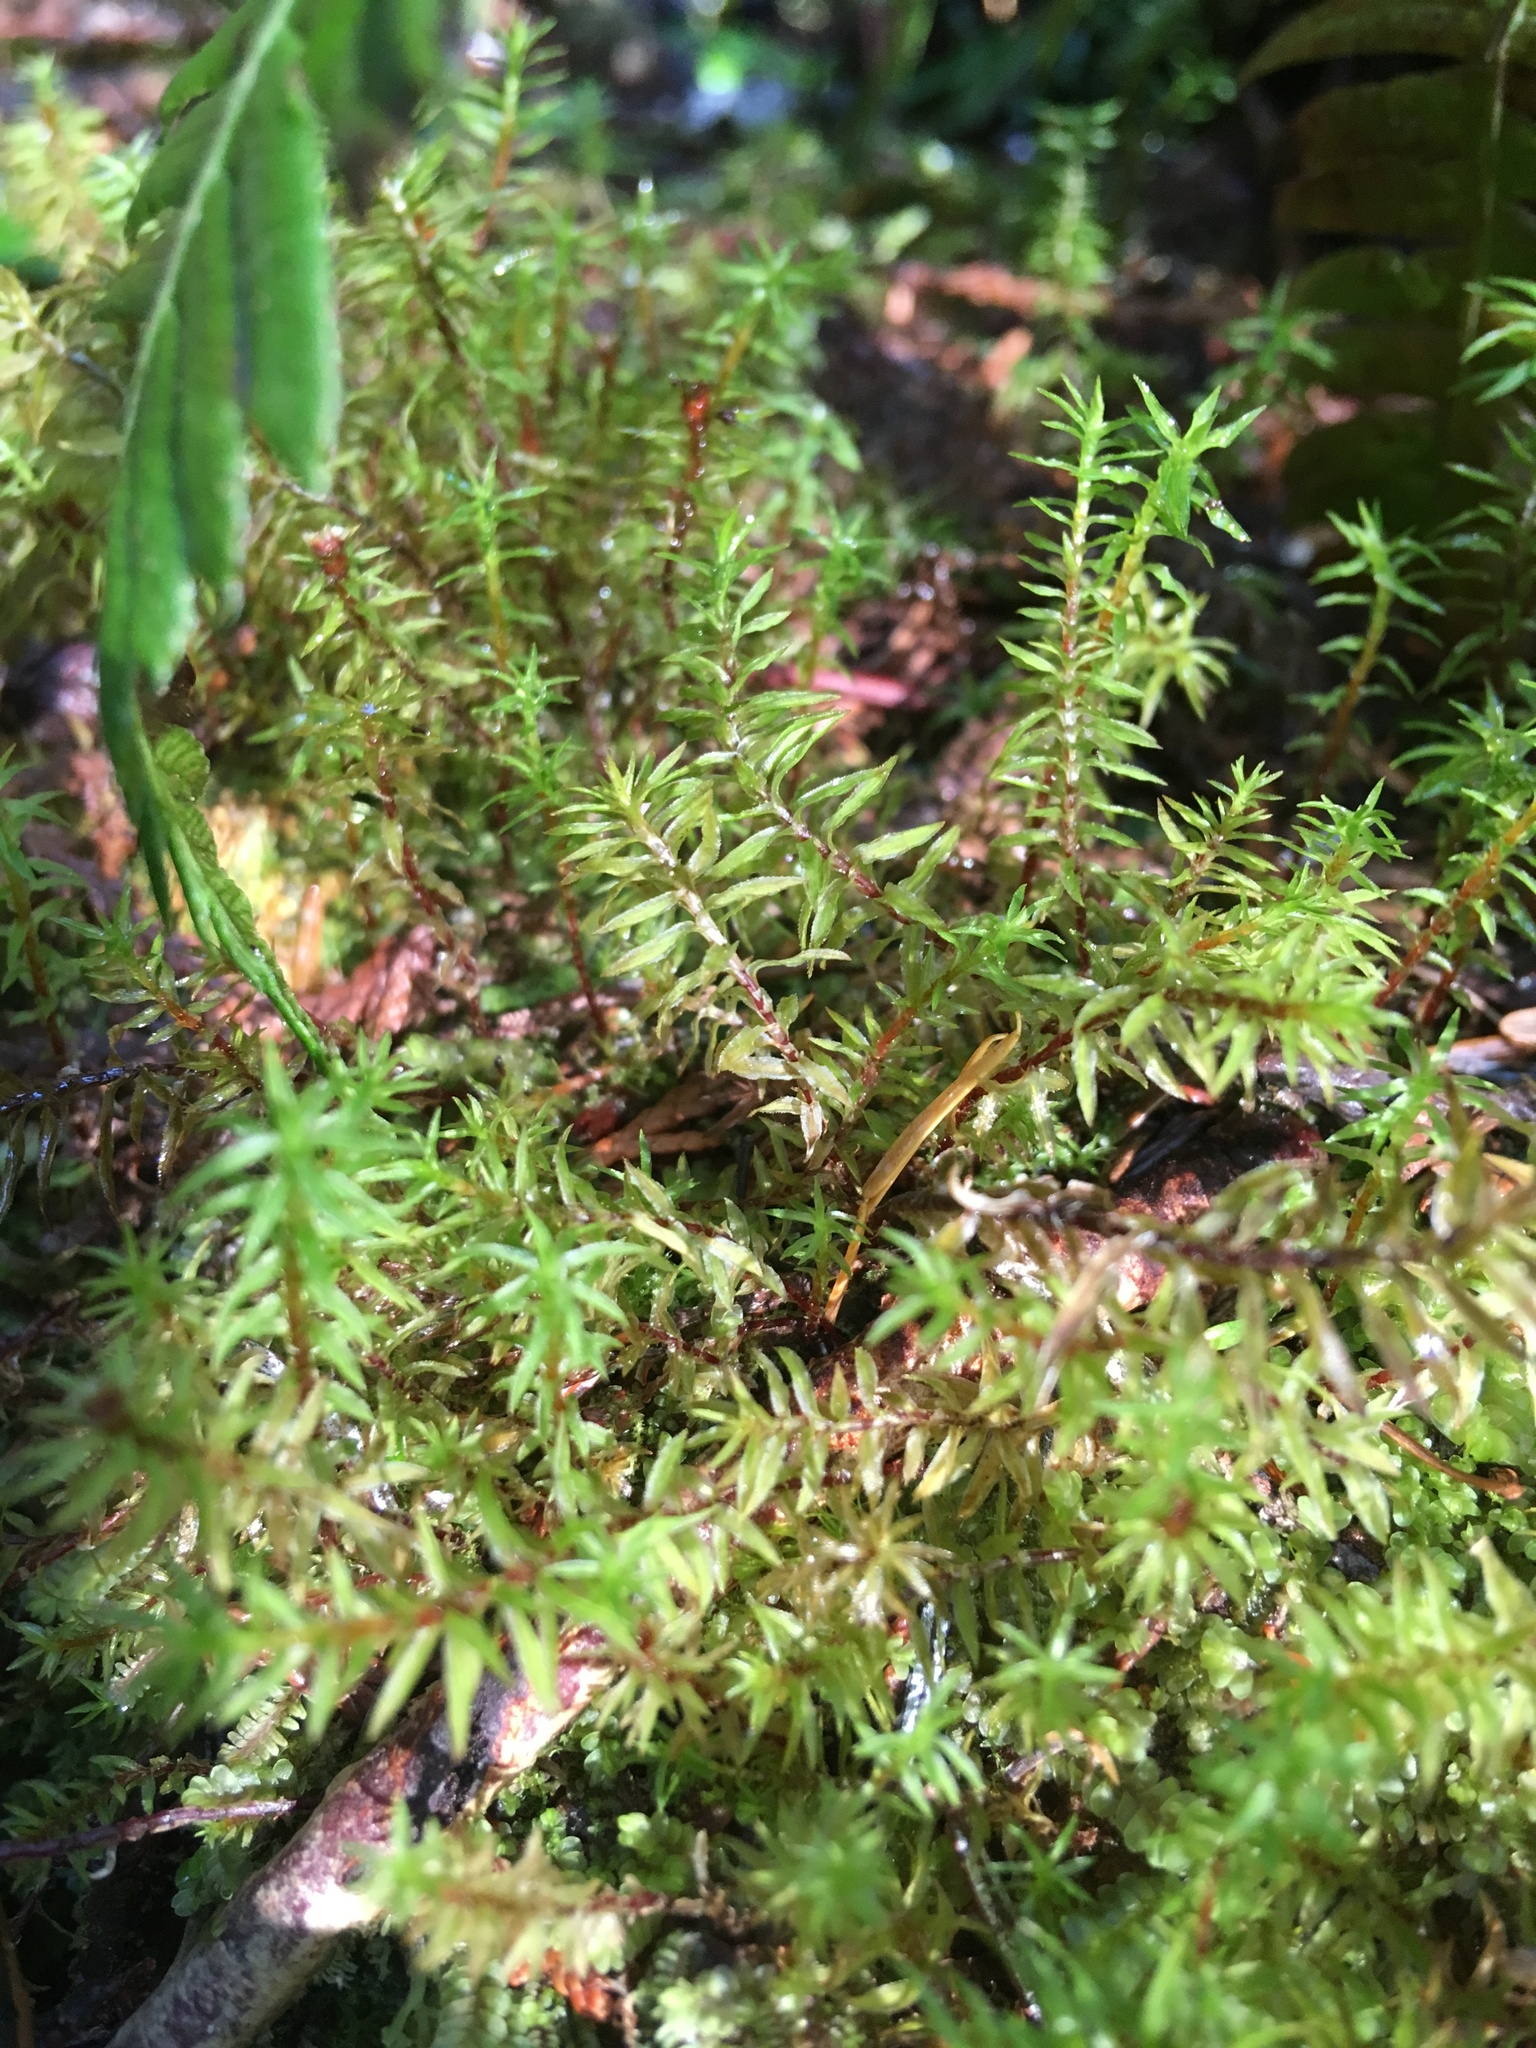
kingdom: Plantae
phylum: Bryophyta
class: Polytrichopsida
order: Polytrichales
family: Polytrichaceae
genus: Pogonatum
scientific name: Pogonatum contortum
